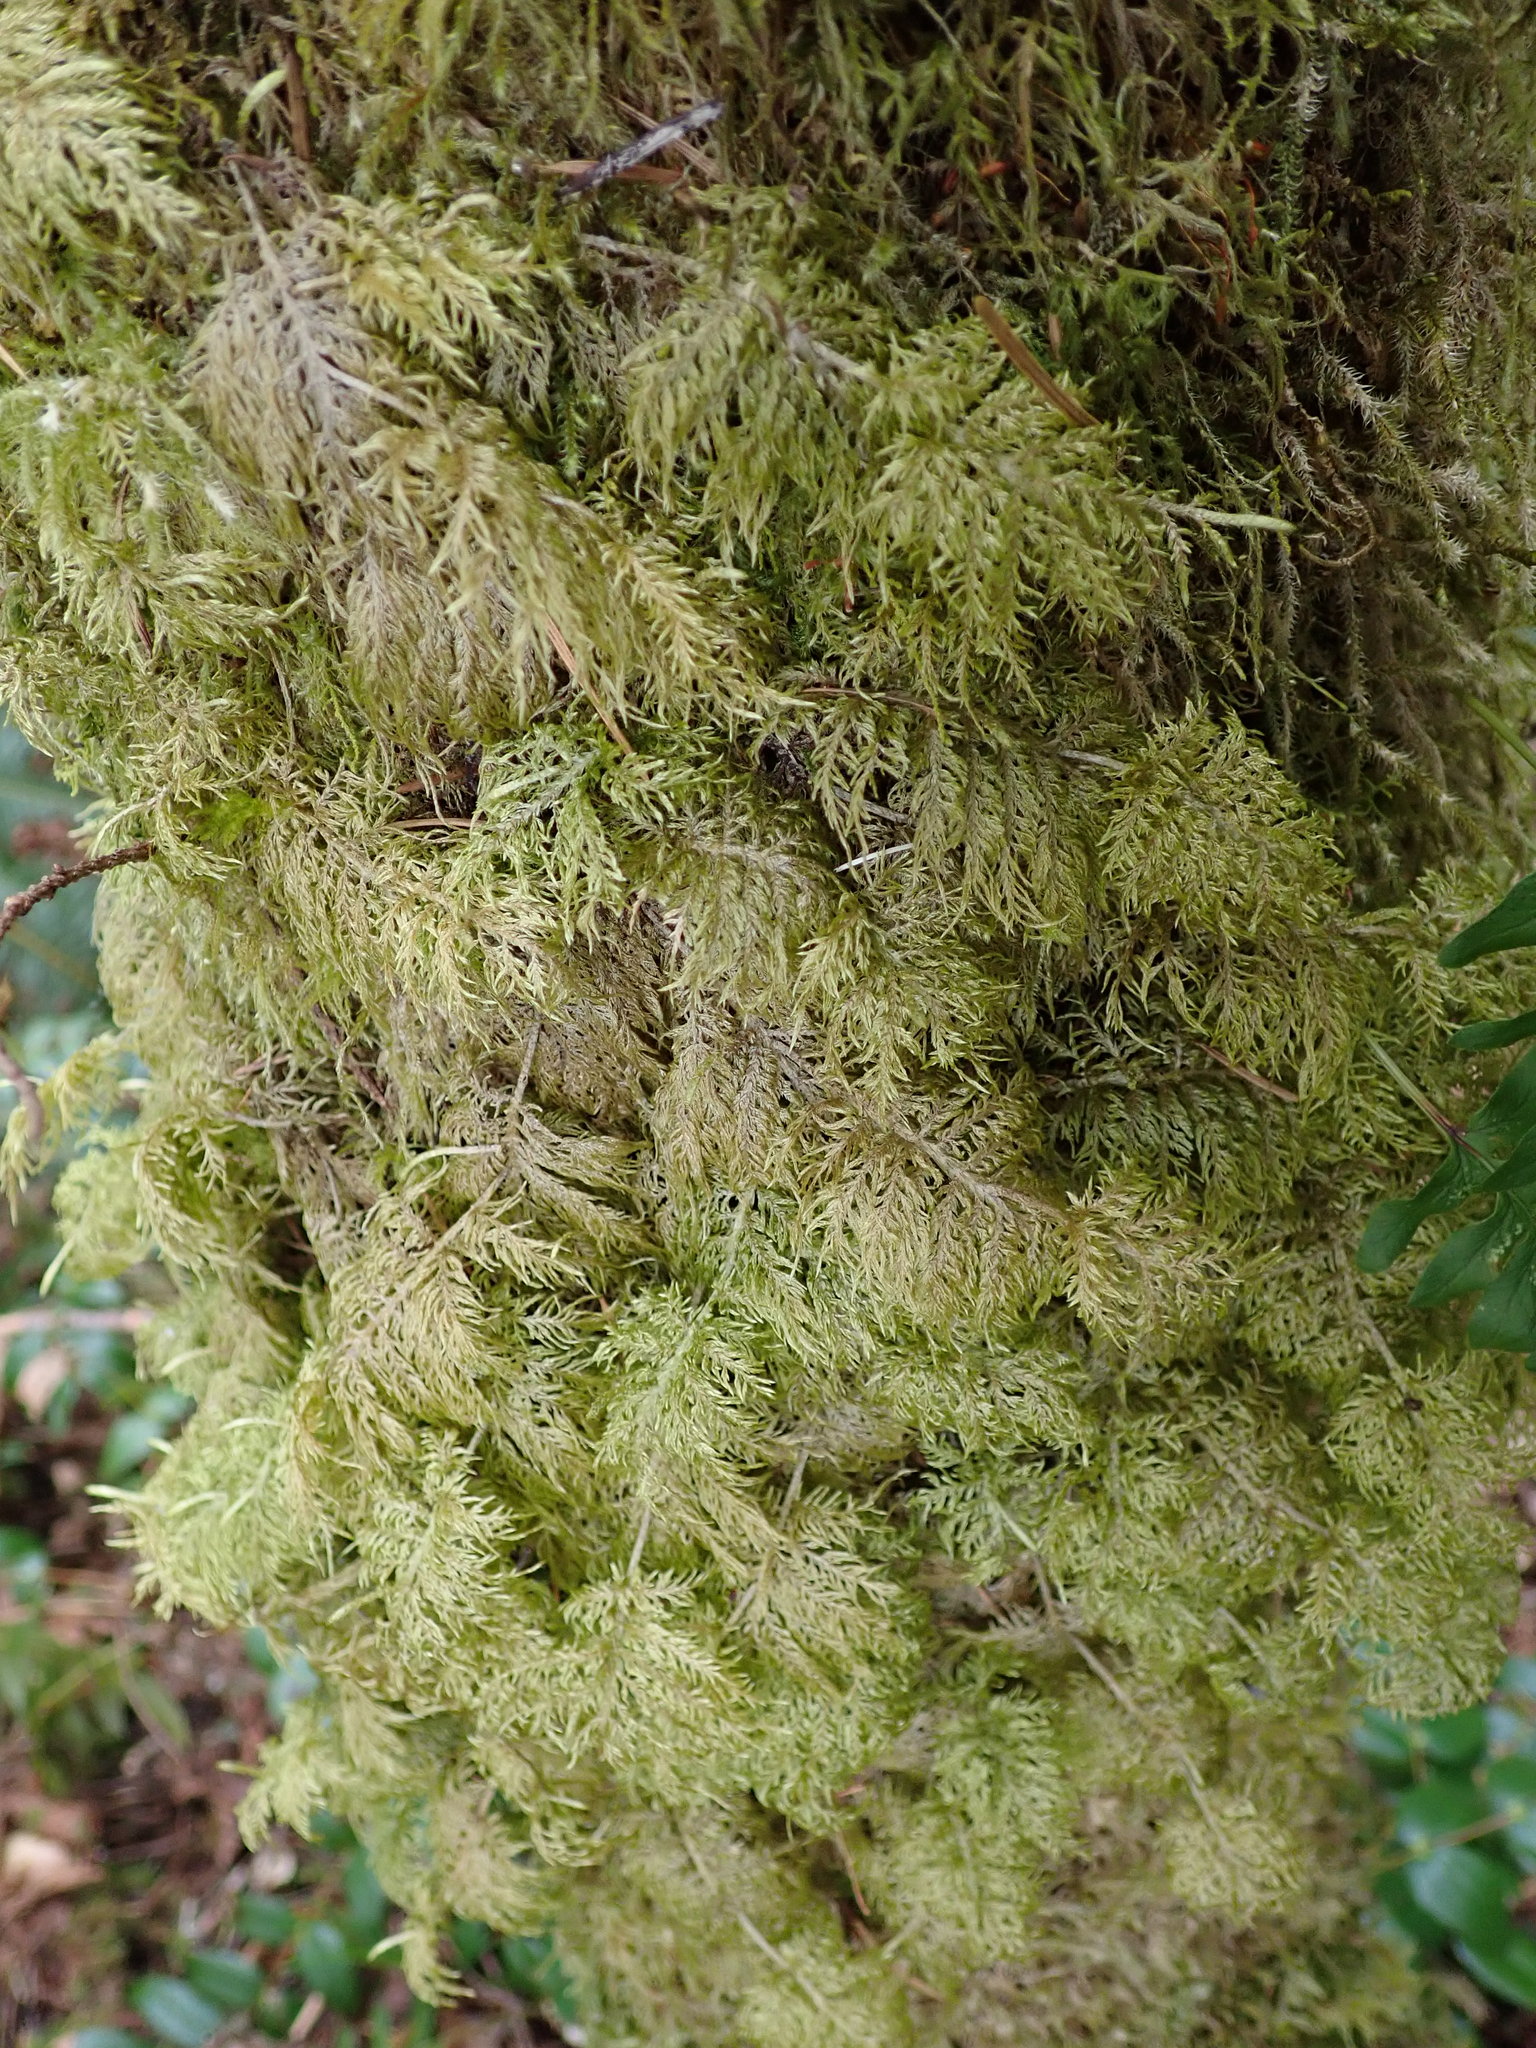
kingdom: Plantae
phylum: Bryophyta
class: Bryopsida
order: Hypnales
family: Hylocomiaceae
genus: Hylocomium
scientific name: Hylocomium splendens
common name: Stairstep moss
